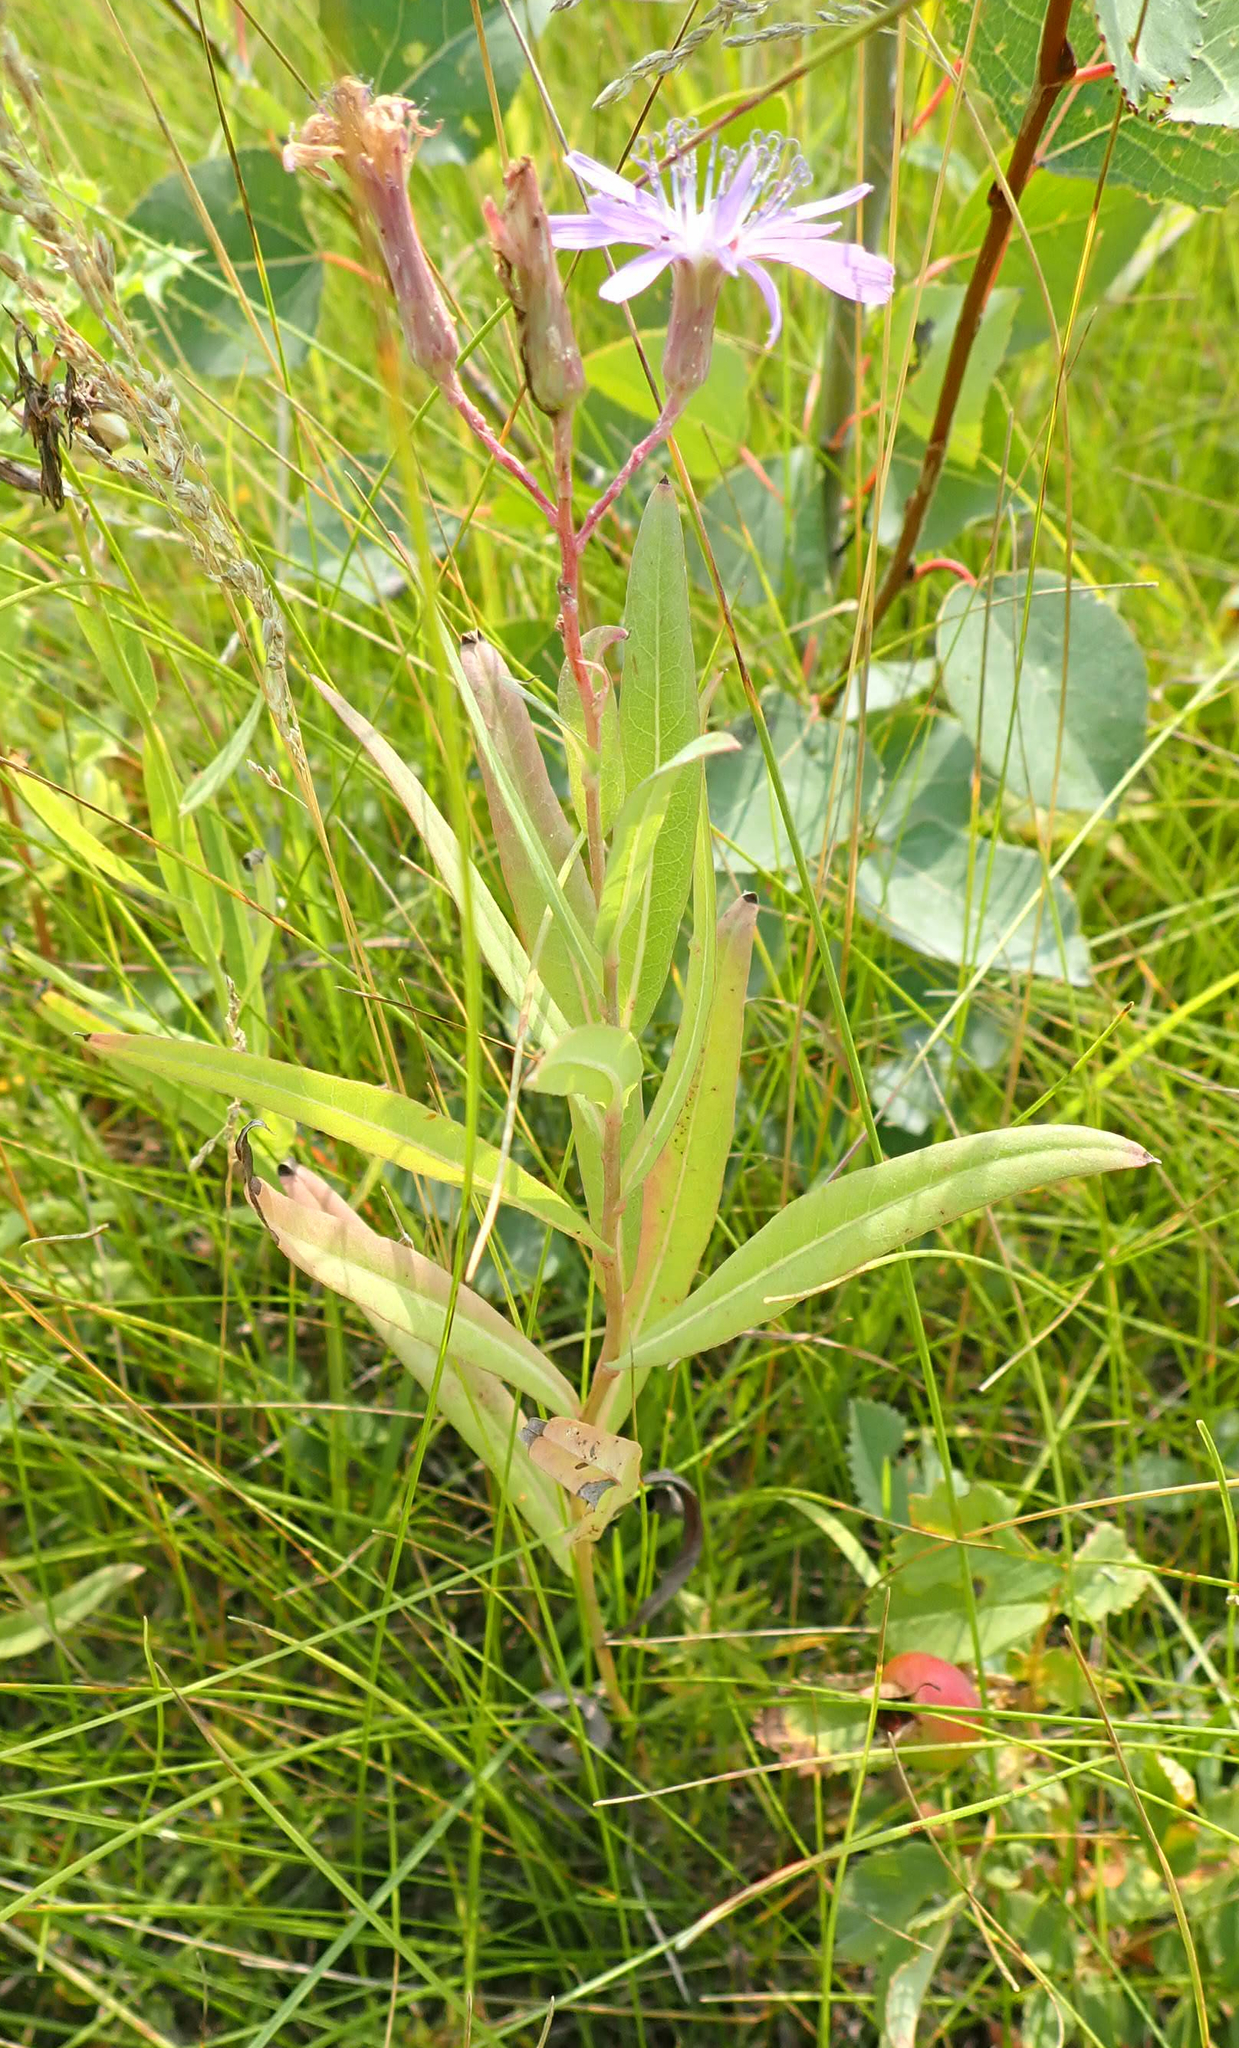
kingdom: Plantae
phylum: Tracheophyta
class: Magnoliopsida
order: Asterales
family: Asteraceae
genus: Lactuca
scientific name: Lactuca pulchella
